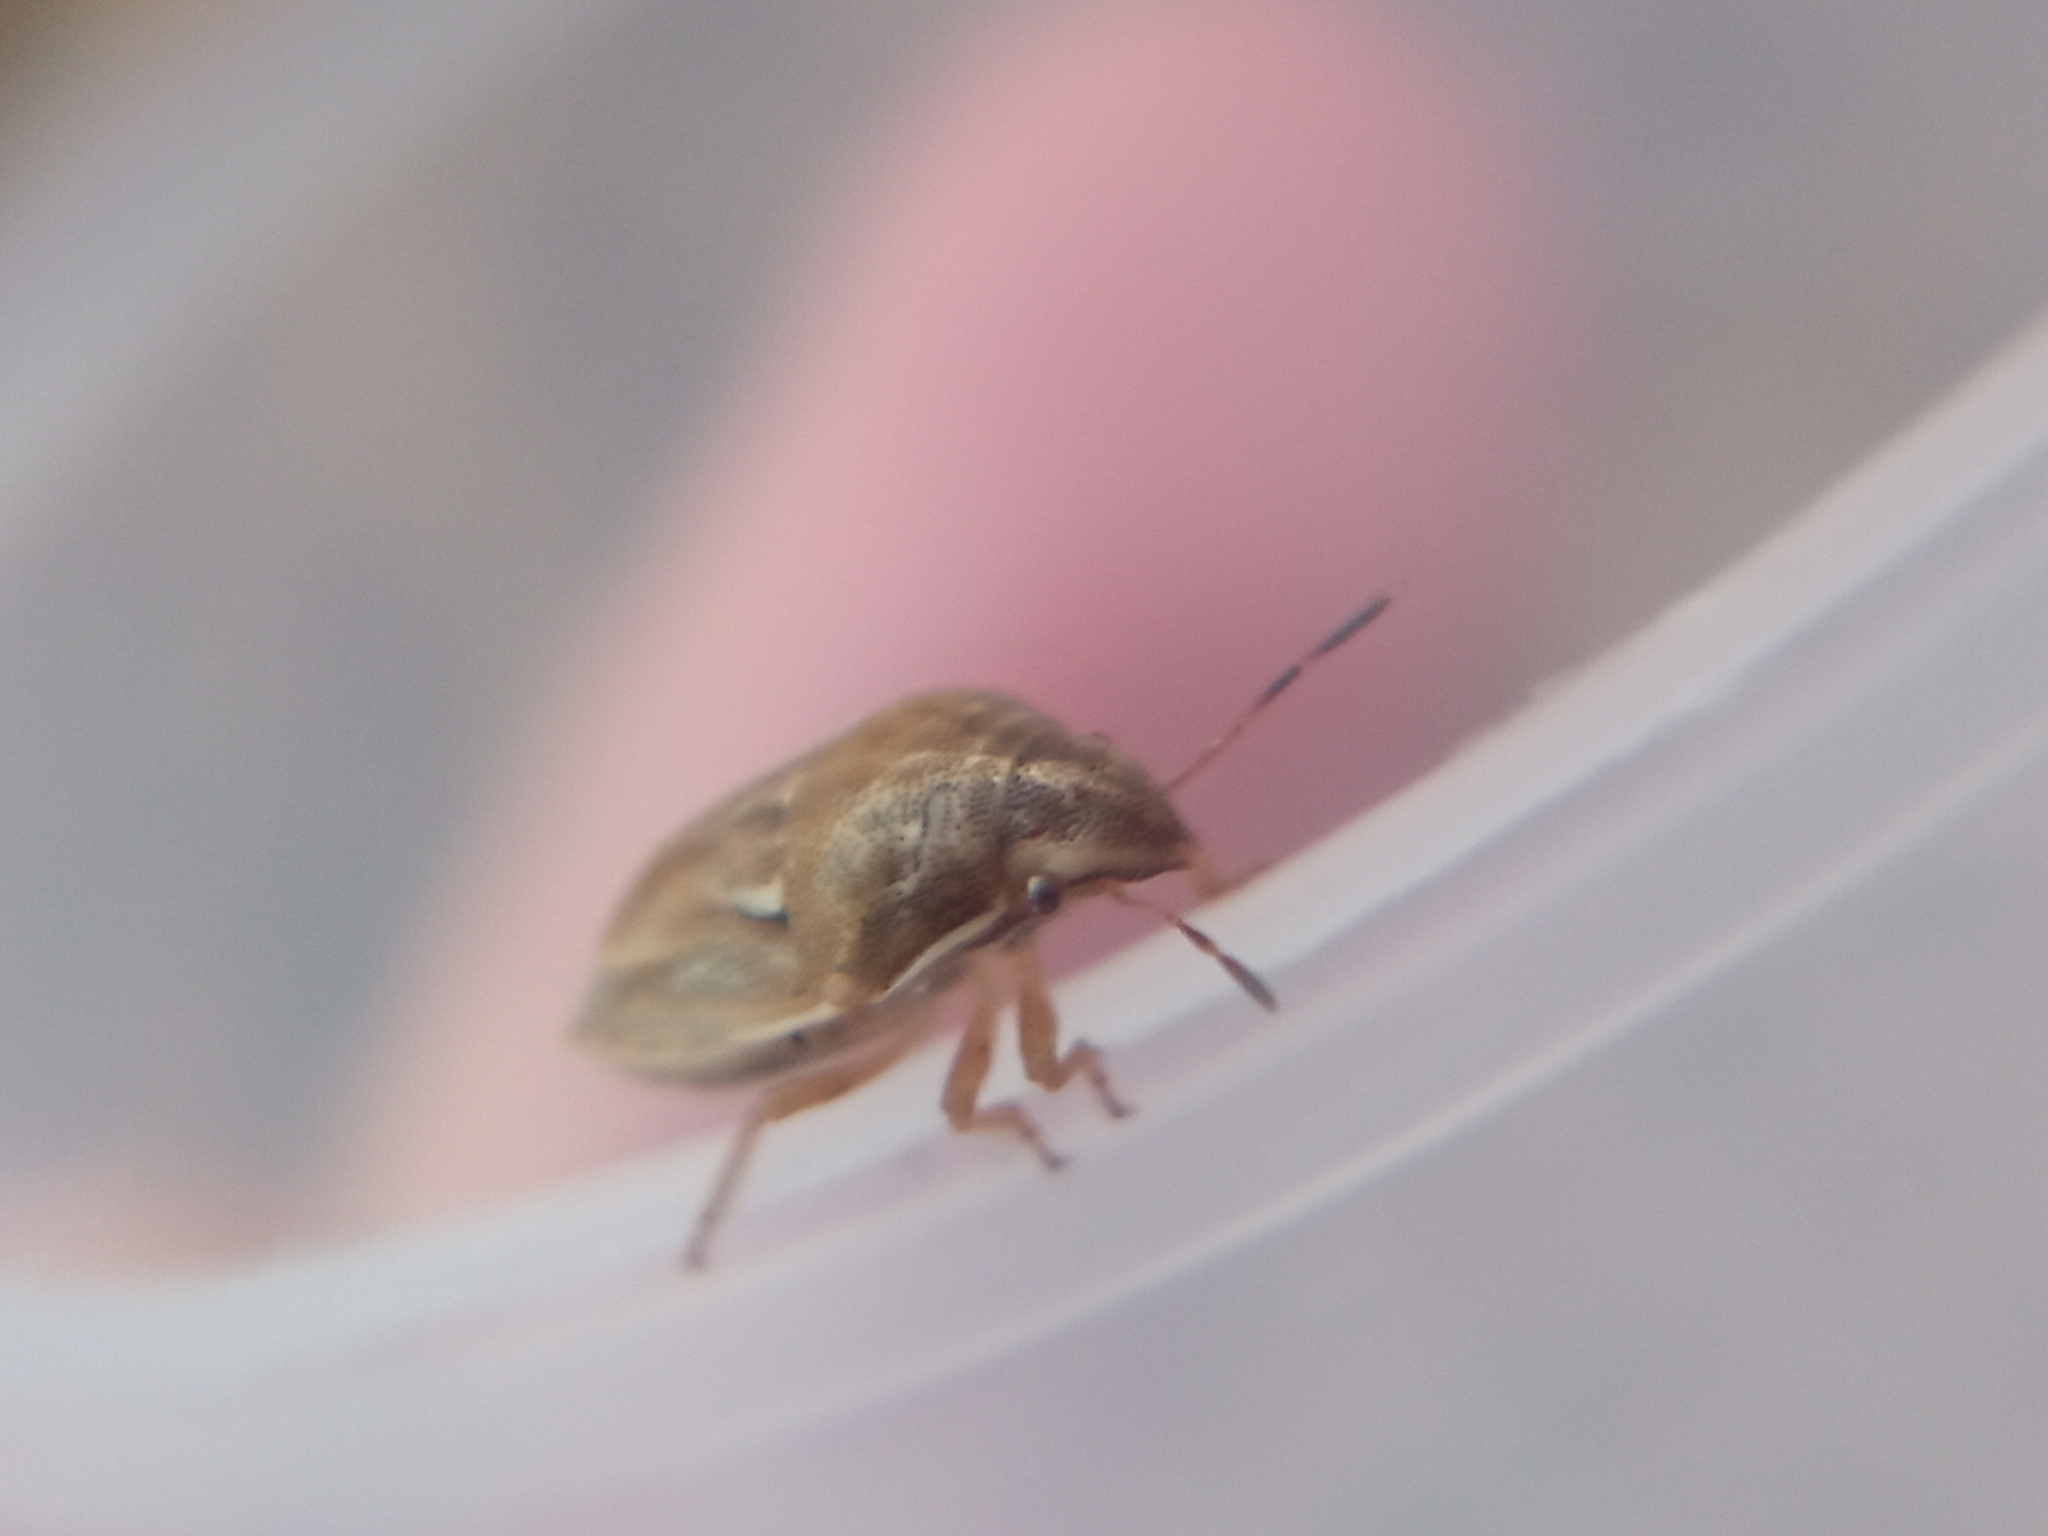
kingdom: Animalia
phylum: Arthropoda
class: Insecta
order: Hemiptera
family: Pentatomidae
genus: Neottiglossa
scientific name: Neottiglossa leporina
